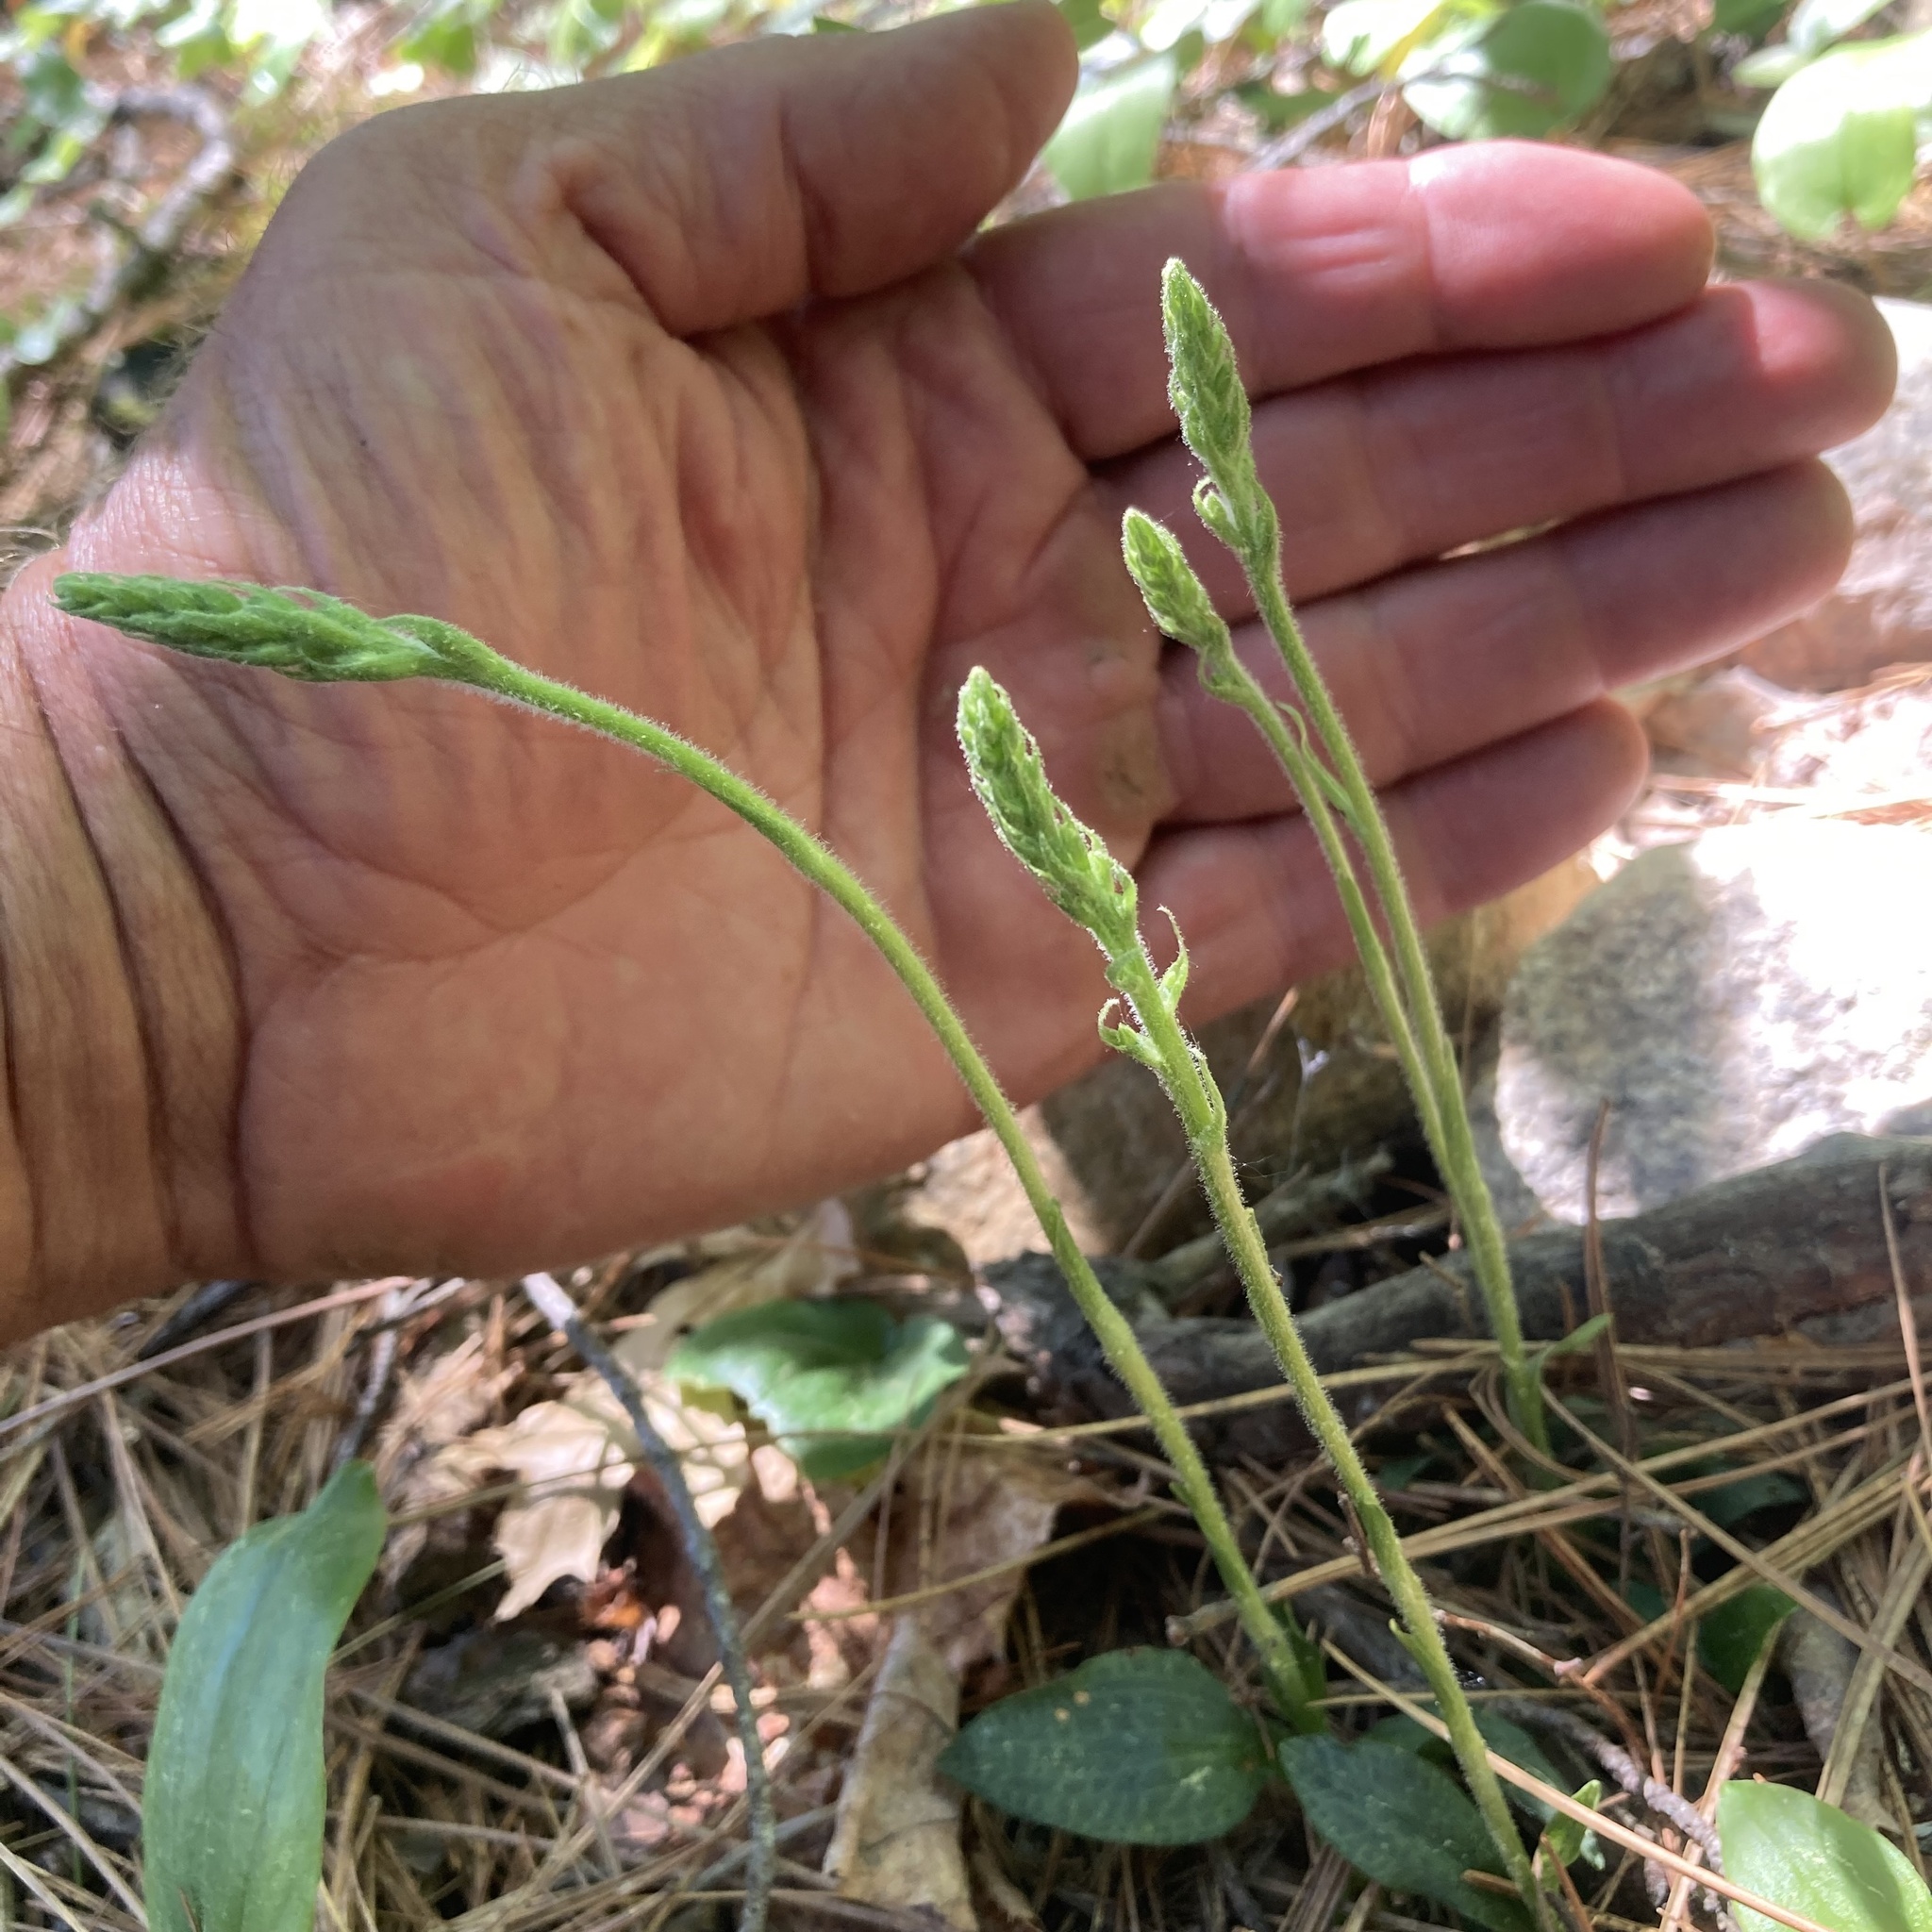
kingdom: Plantae
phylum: Tracheophyta
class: Liliopsida
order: Asparagales
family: Orchidaceae
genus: Goodyera
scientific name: Goodyera tesselata
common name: Checkered rattlesnake-plantain
